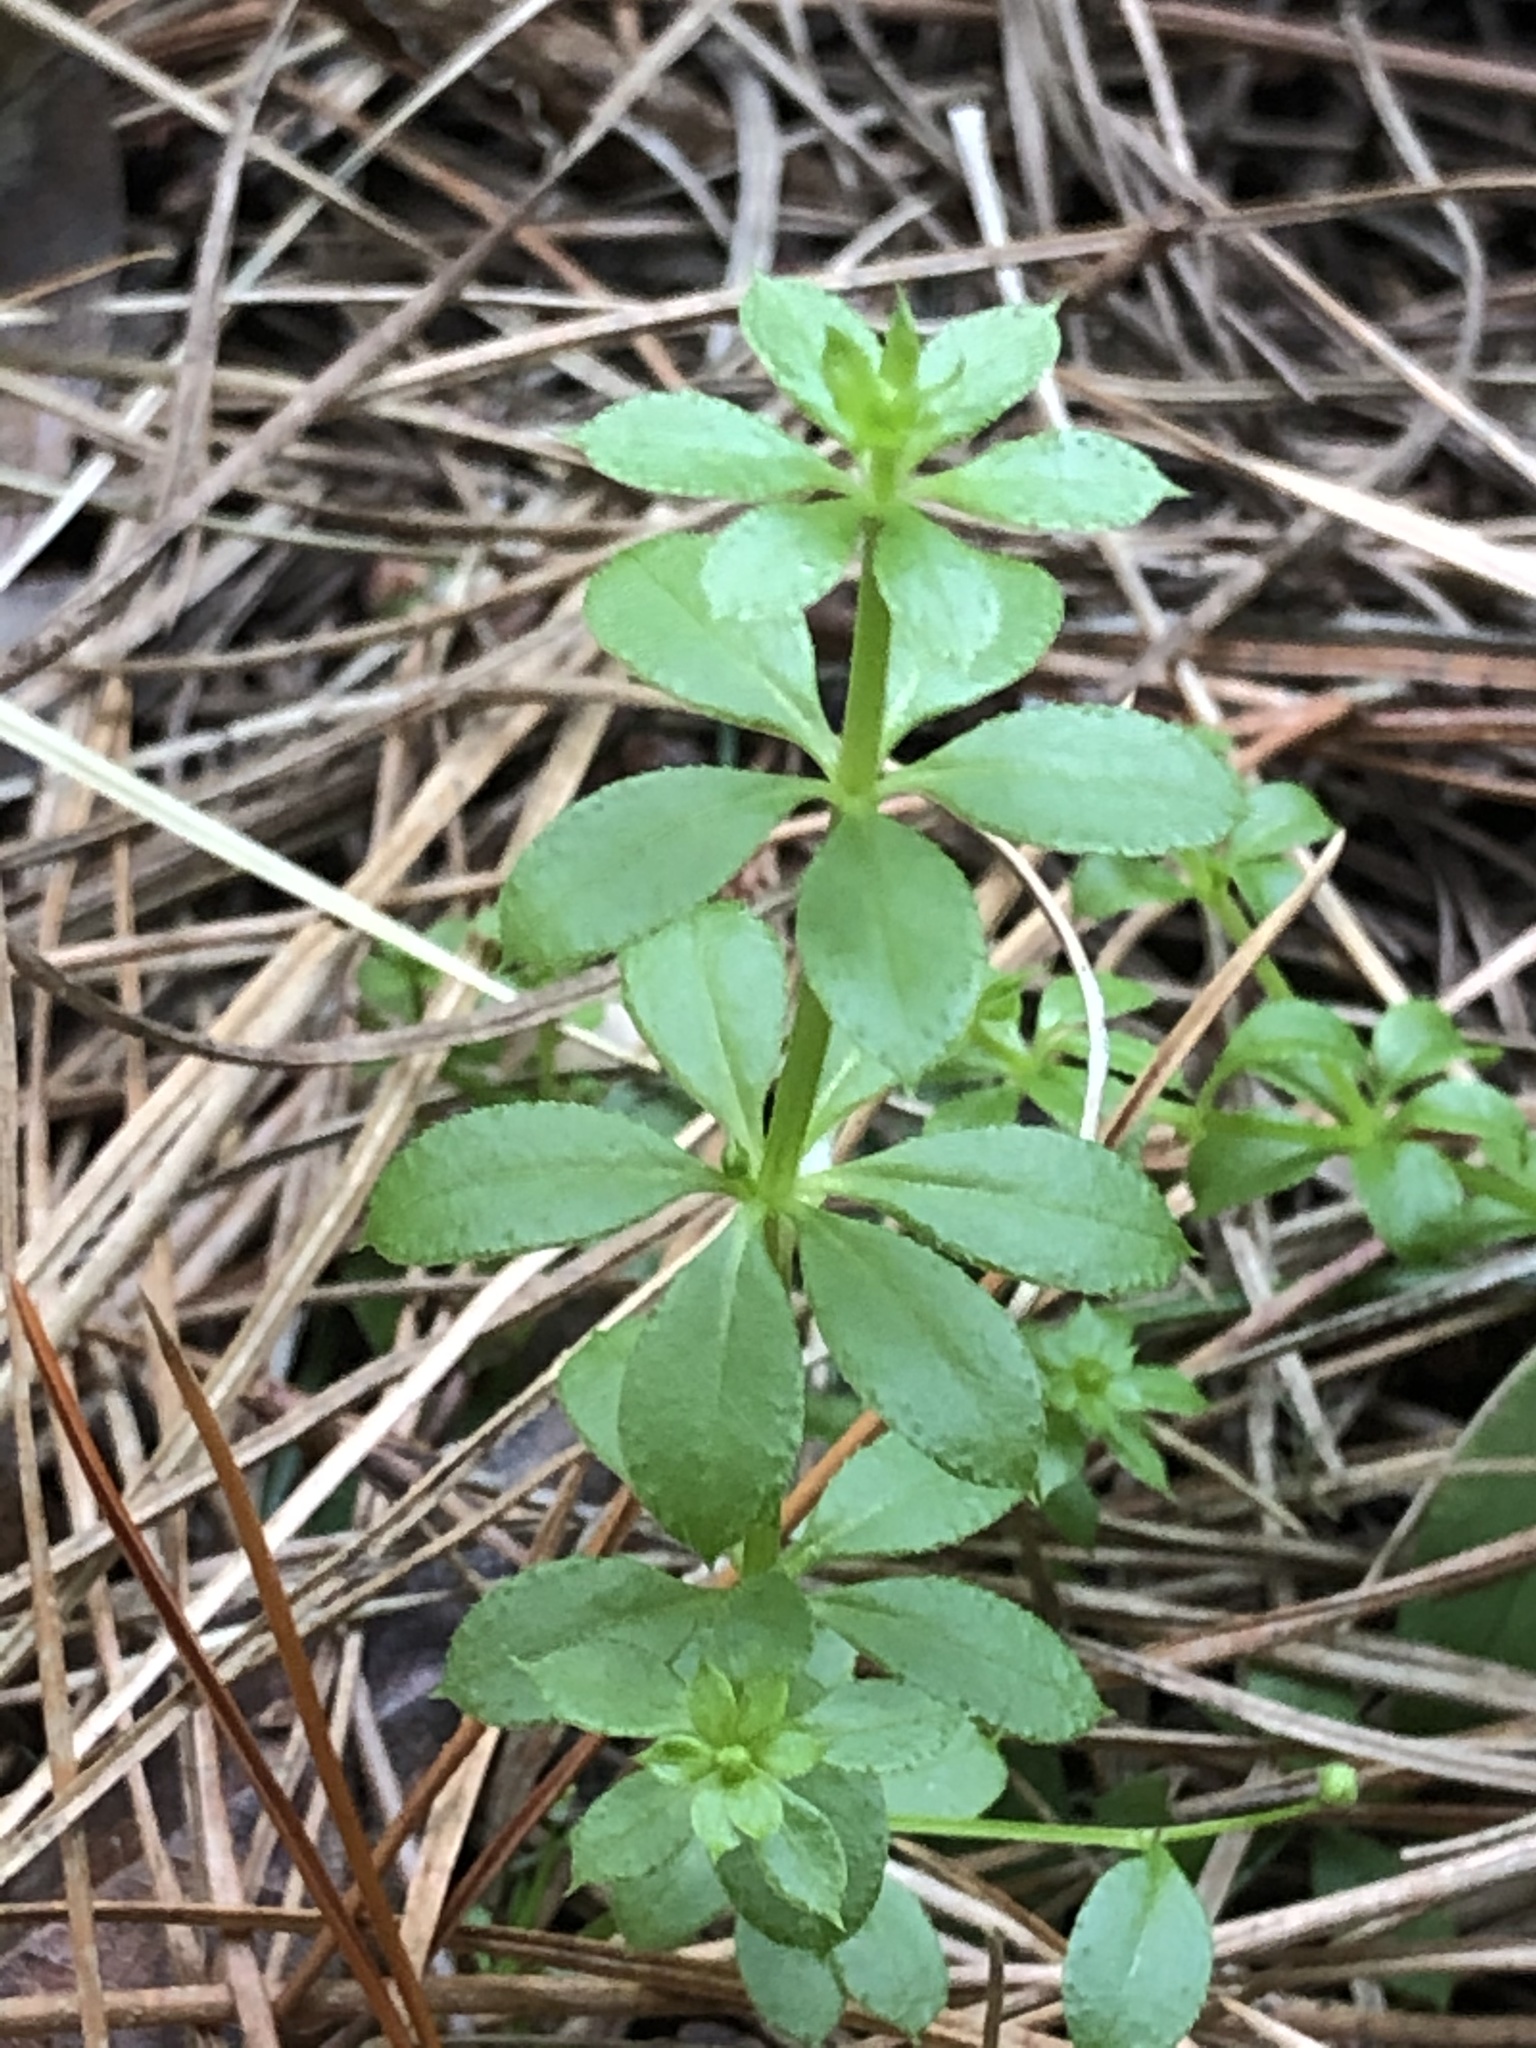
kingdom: Plantae
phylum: Tracheophyta
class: Magnoliopsida
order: Gentianales
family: Rubiaceae
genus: Galium
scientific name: Galium triflorum
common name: Fragrant bedstraw
